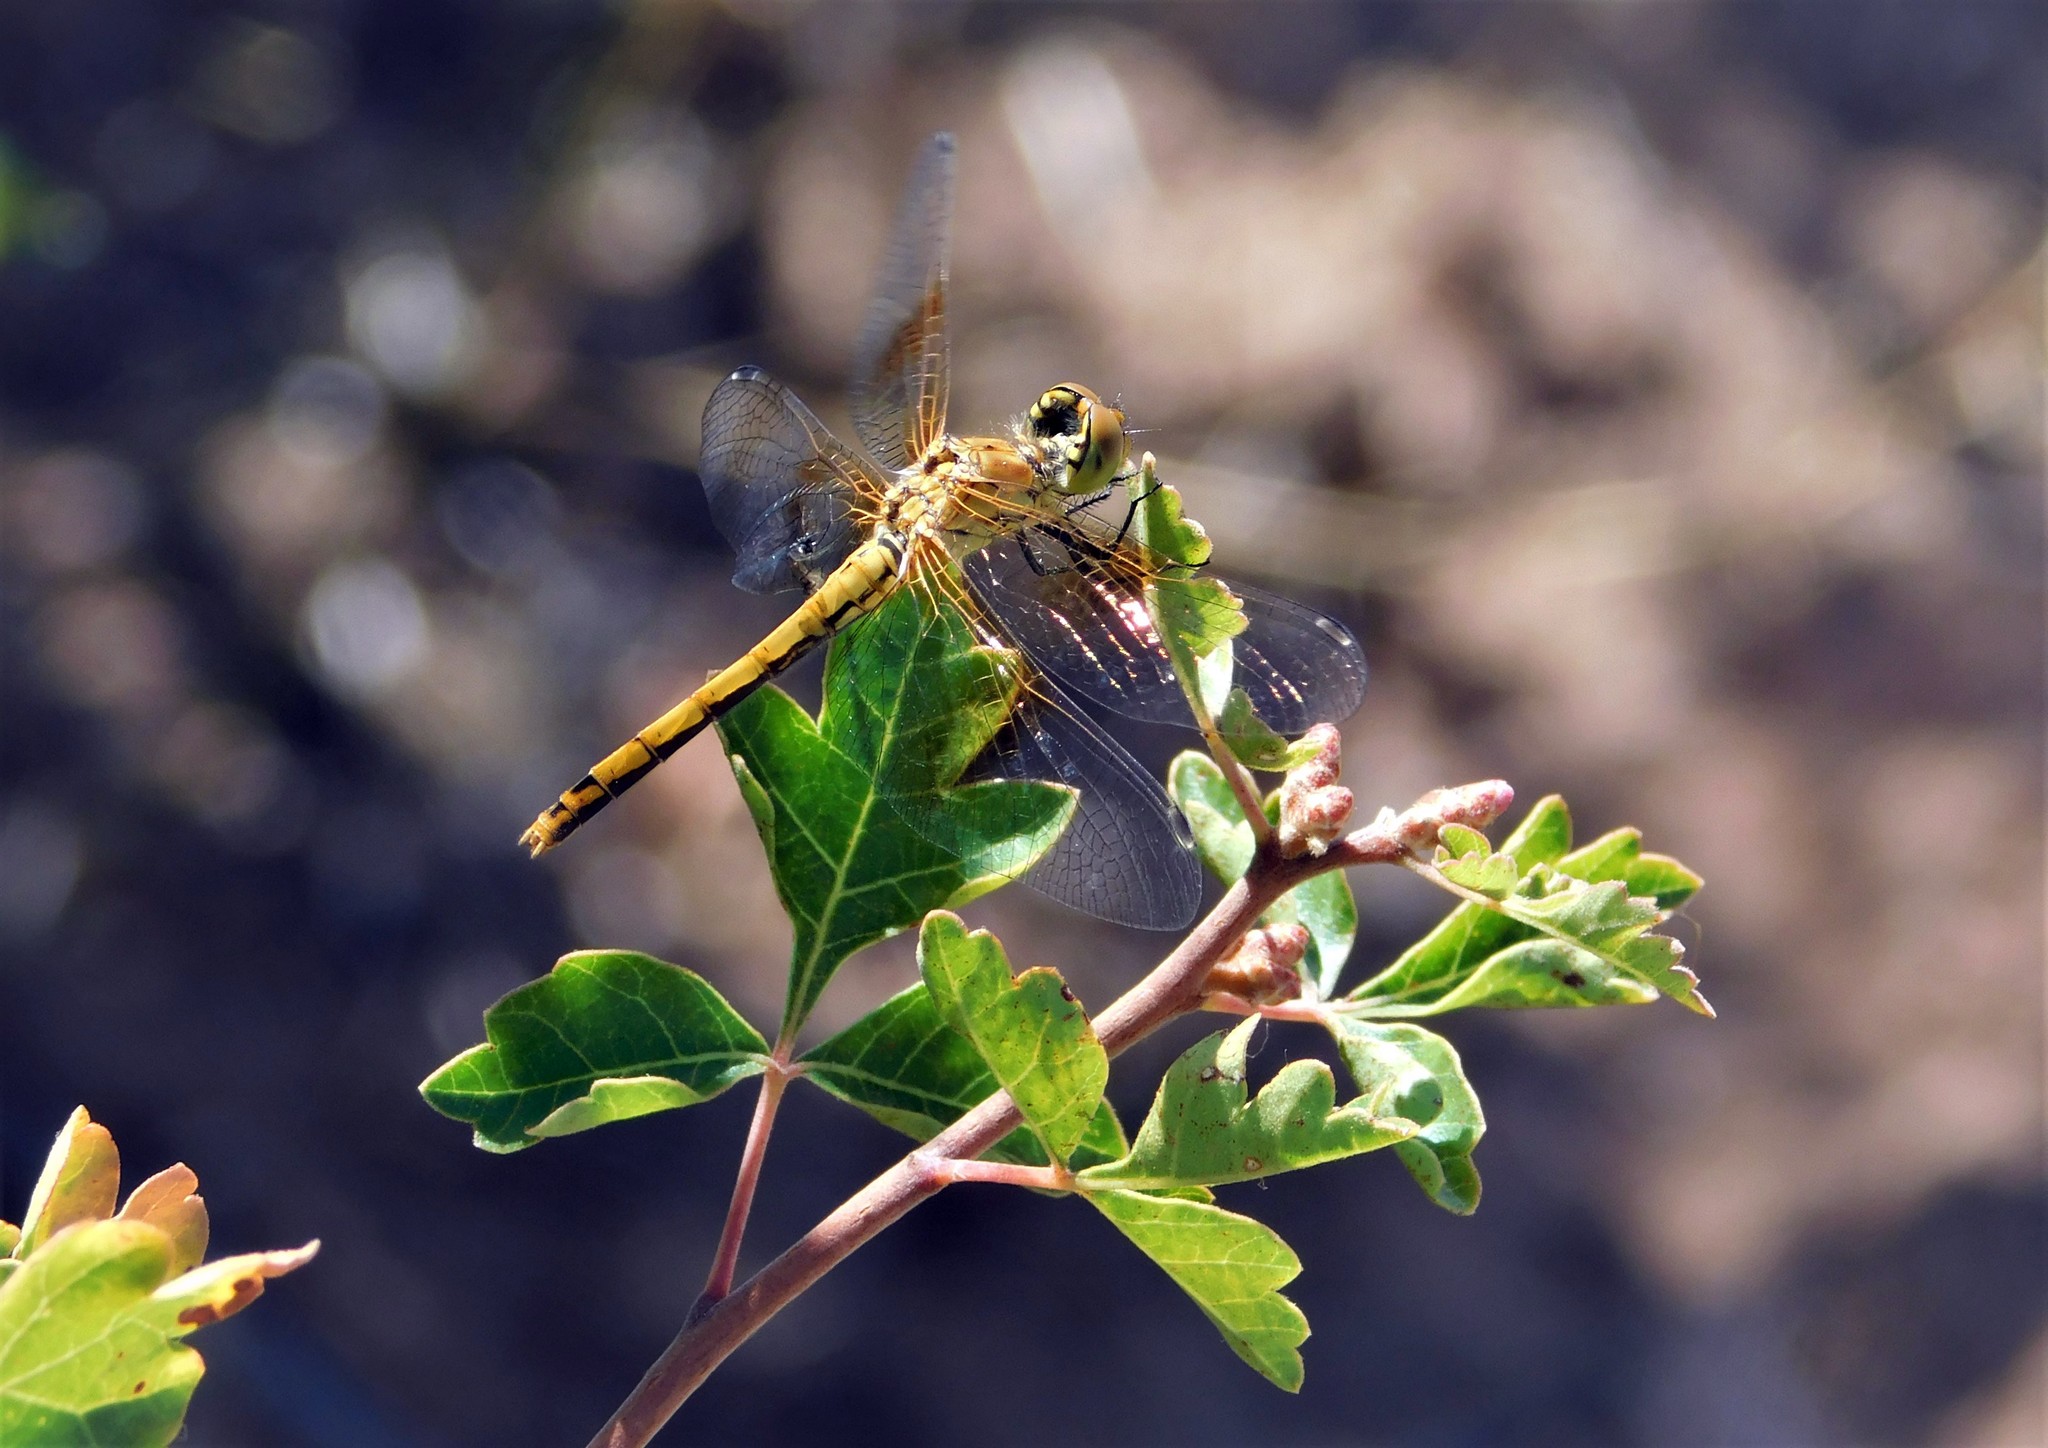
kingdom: Animalia
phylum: Arthropoda
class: Insecta
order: Odonata
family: Libellulidae
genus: Sympetrum
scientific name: Sympetrum semicinctum
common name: Band-winged meadowhawk
